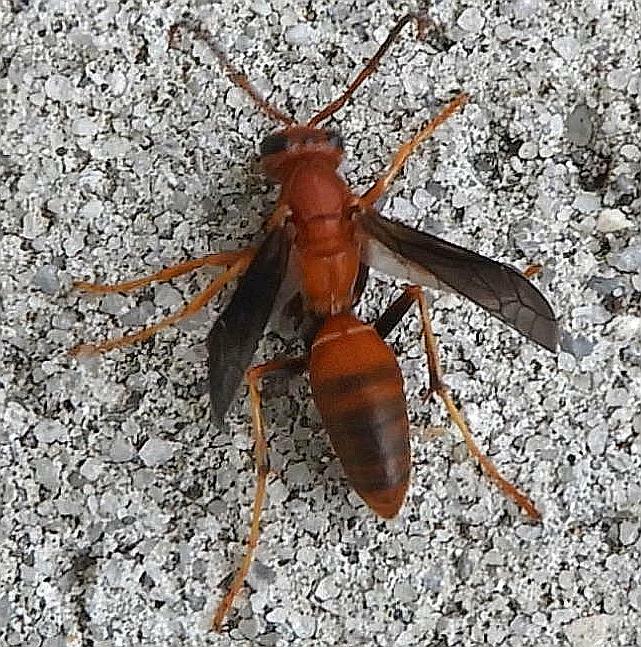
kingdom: Animalia
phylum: Arthropoda
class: Insecta
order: Hymenoptera
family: Eumenidae
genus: Polistes
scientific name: Polistes fuscatus
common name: Dark paper wasp
